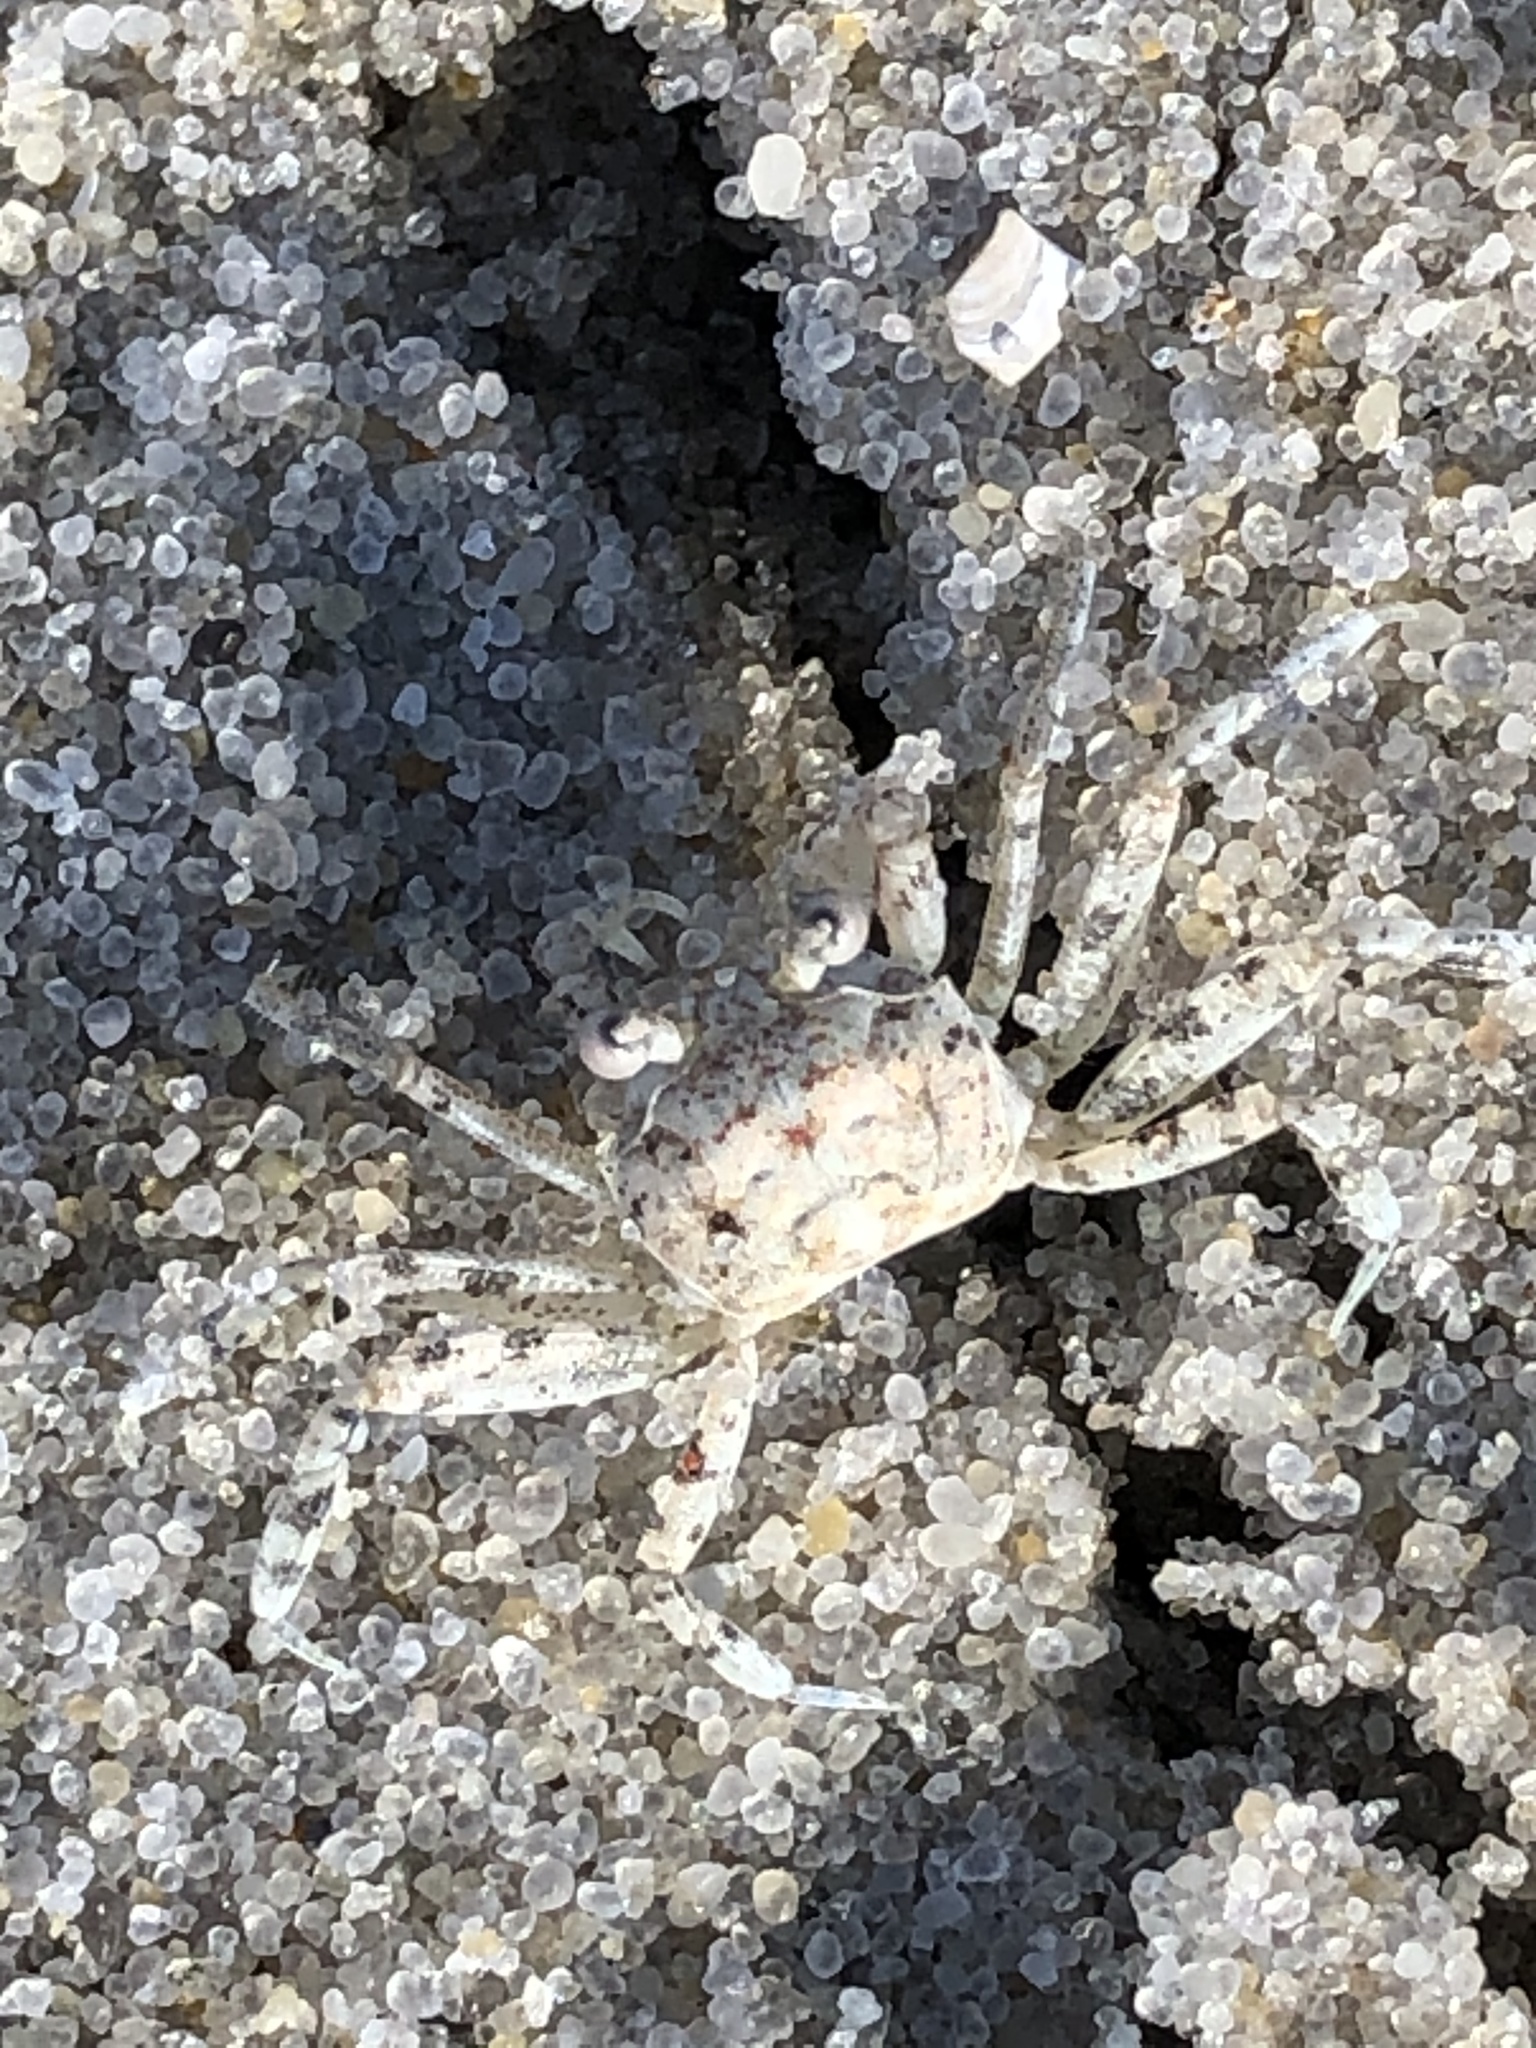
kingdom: Animalia
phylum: Arthropoda
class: Malacostraca
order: Decapoda
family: Ocypodidae
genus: Ocypode
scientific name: Ocypode quadrata
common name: Ghost crab
